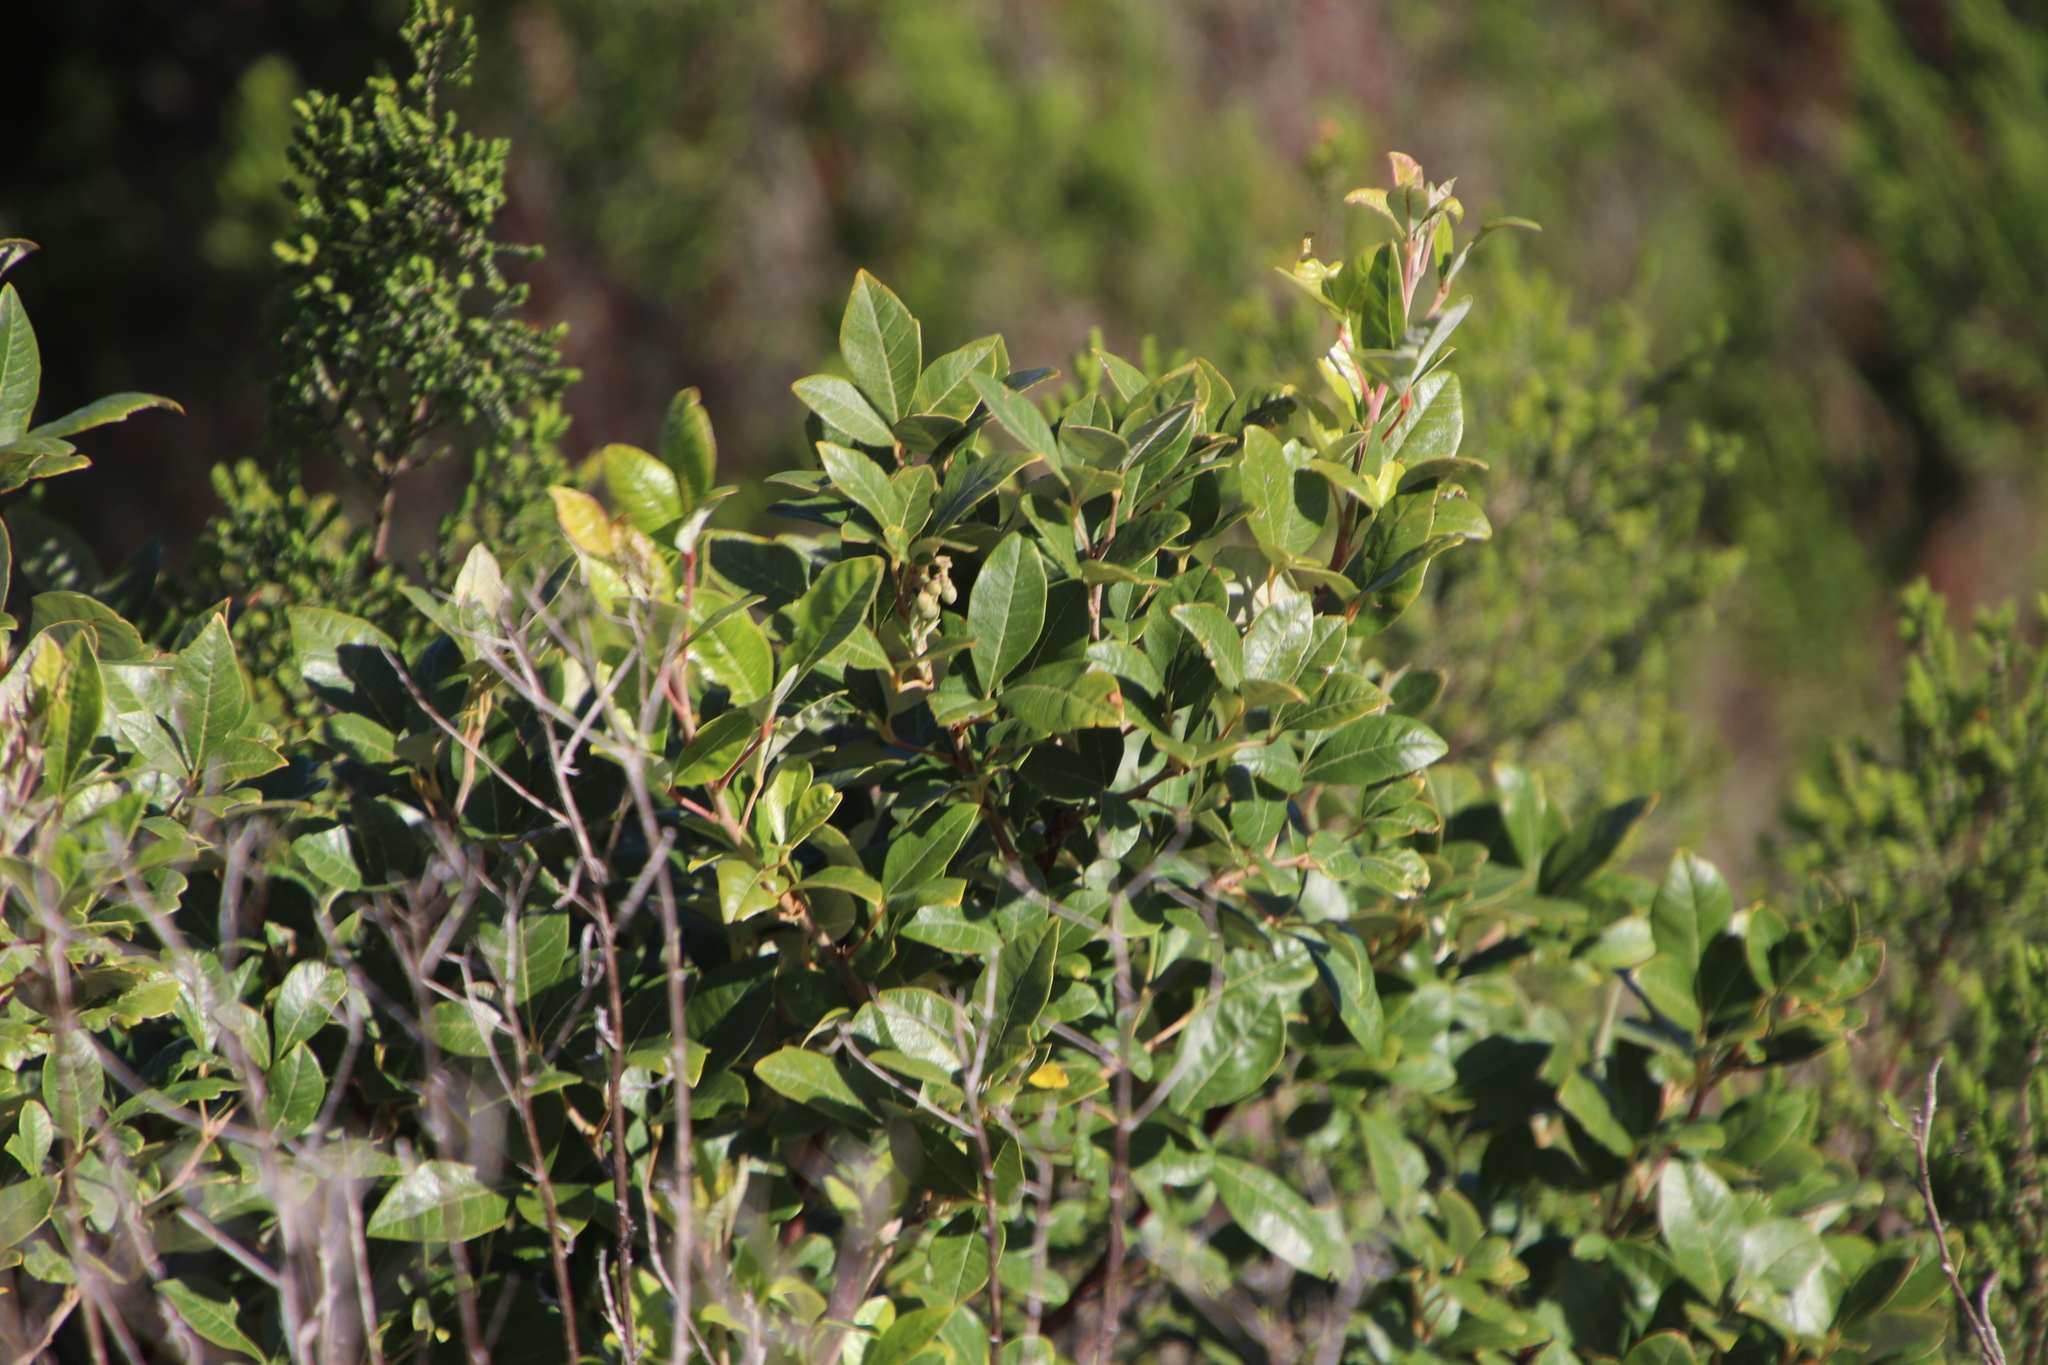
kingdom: Plantae
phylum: Tracheophyta
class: Magnoliopsida
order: Sapindales
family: Anacardiaceae
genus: Searsia
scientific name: Searsia tomentosa
